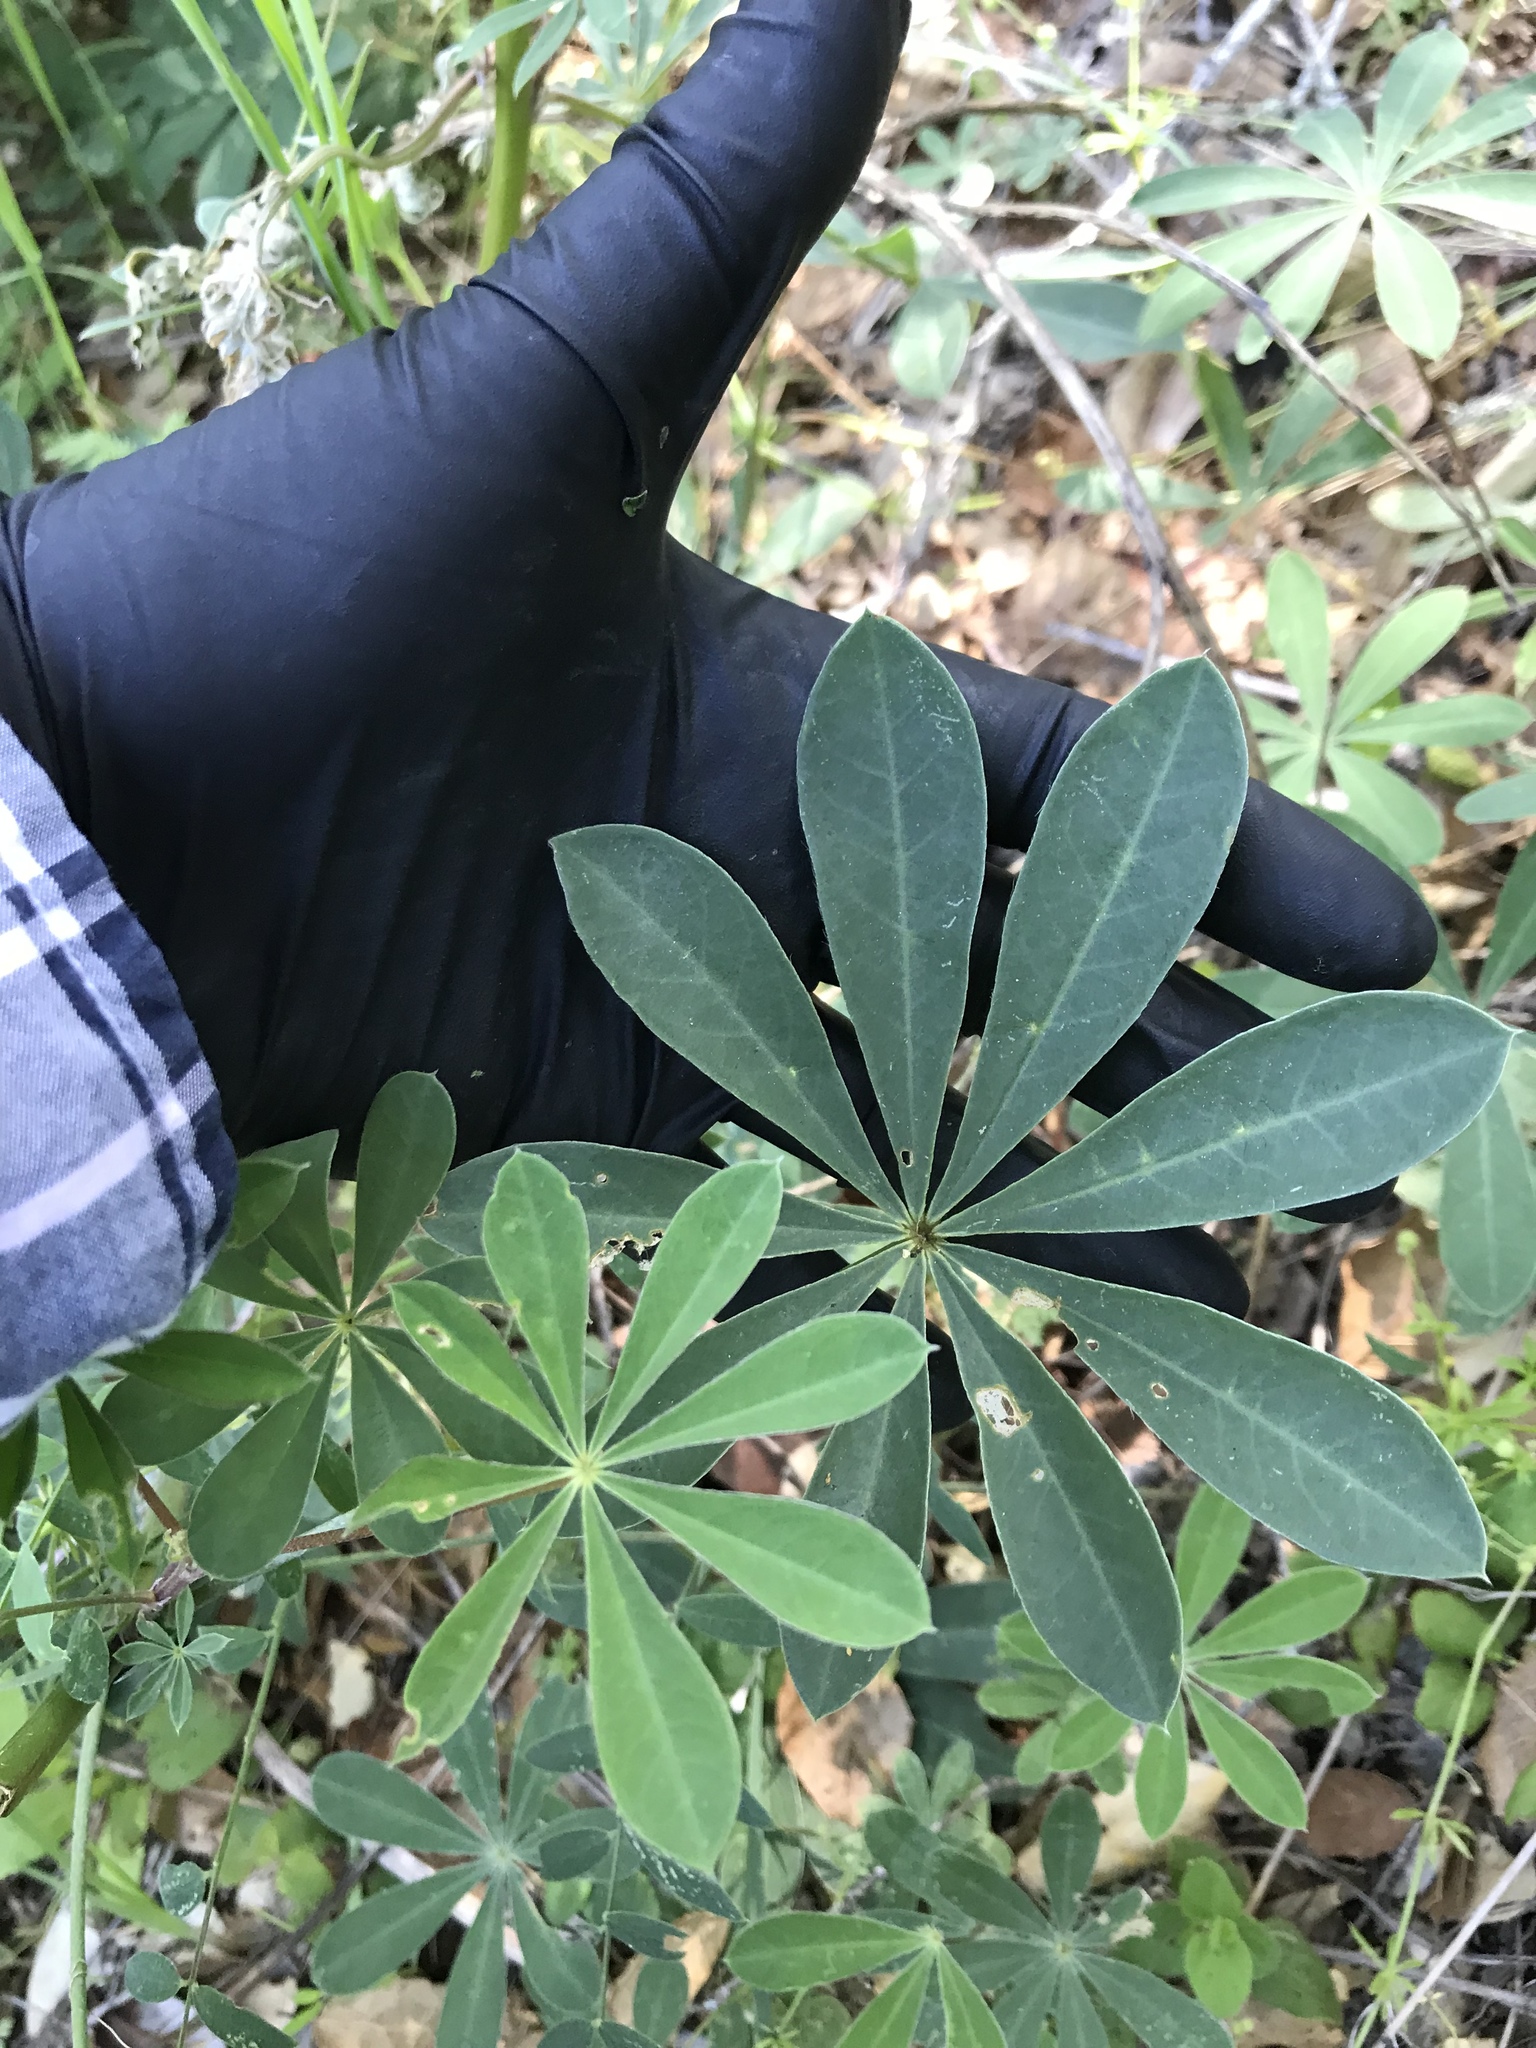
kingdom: Plantae
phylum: Tracheophyta
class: Magnoliopsida
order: Fabales
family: Fabaceae
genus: Lupinus
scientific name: Lupinus latifolius
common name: Broad-leaved lupine
